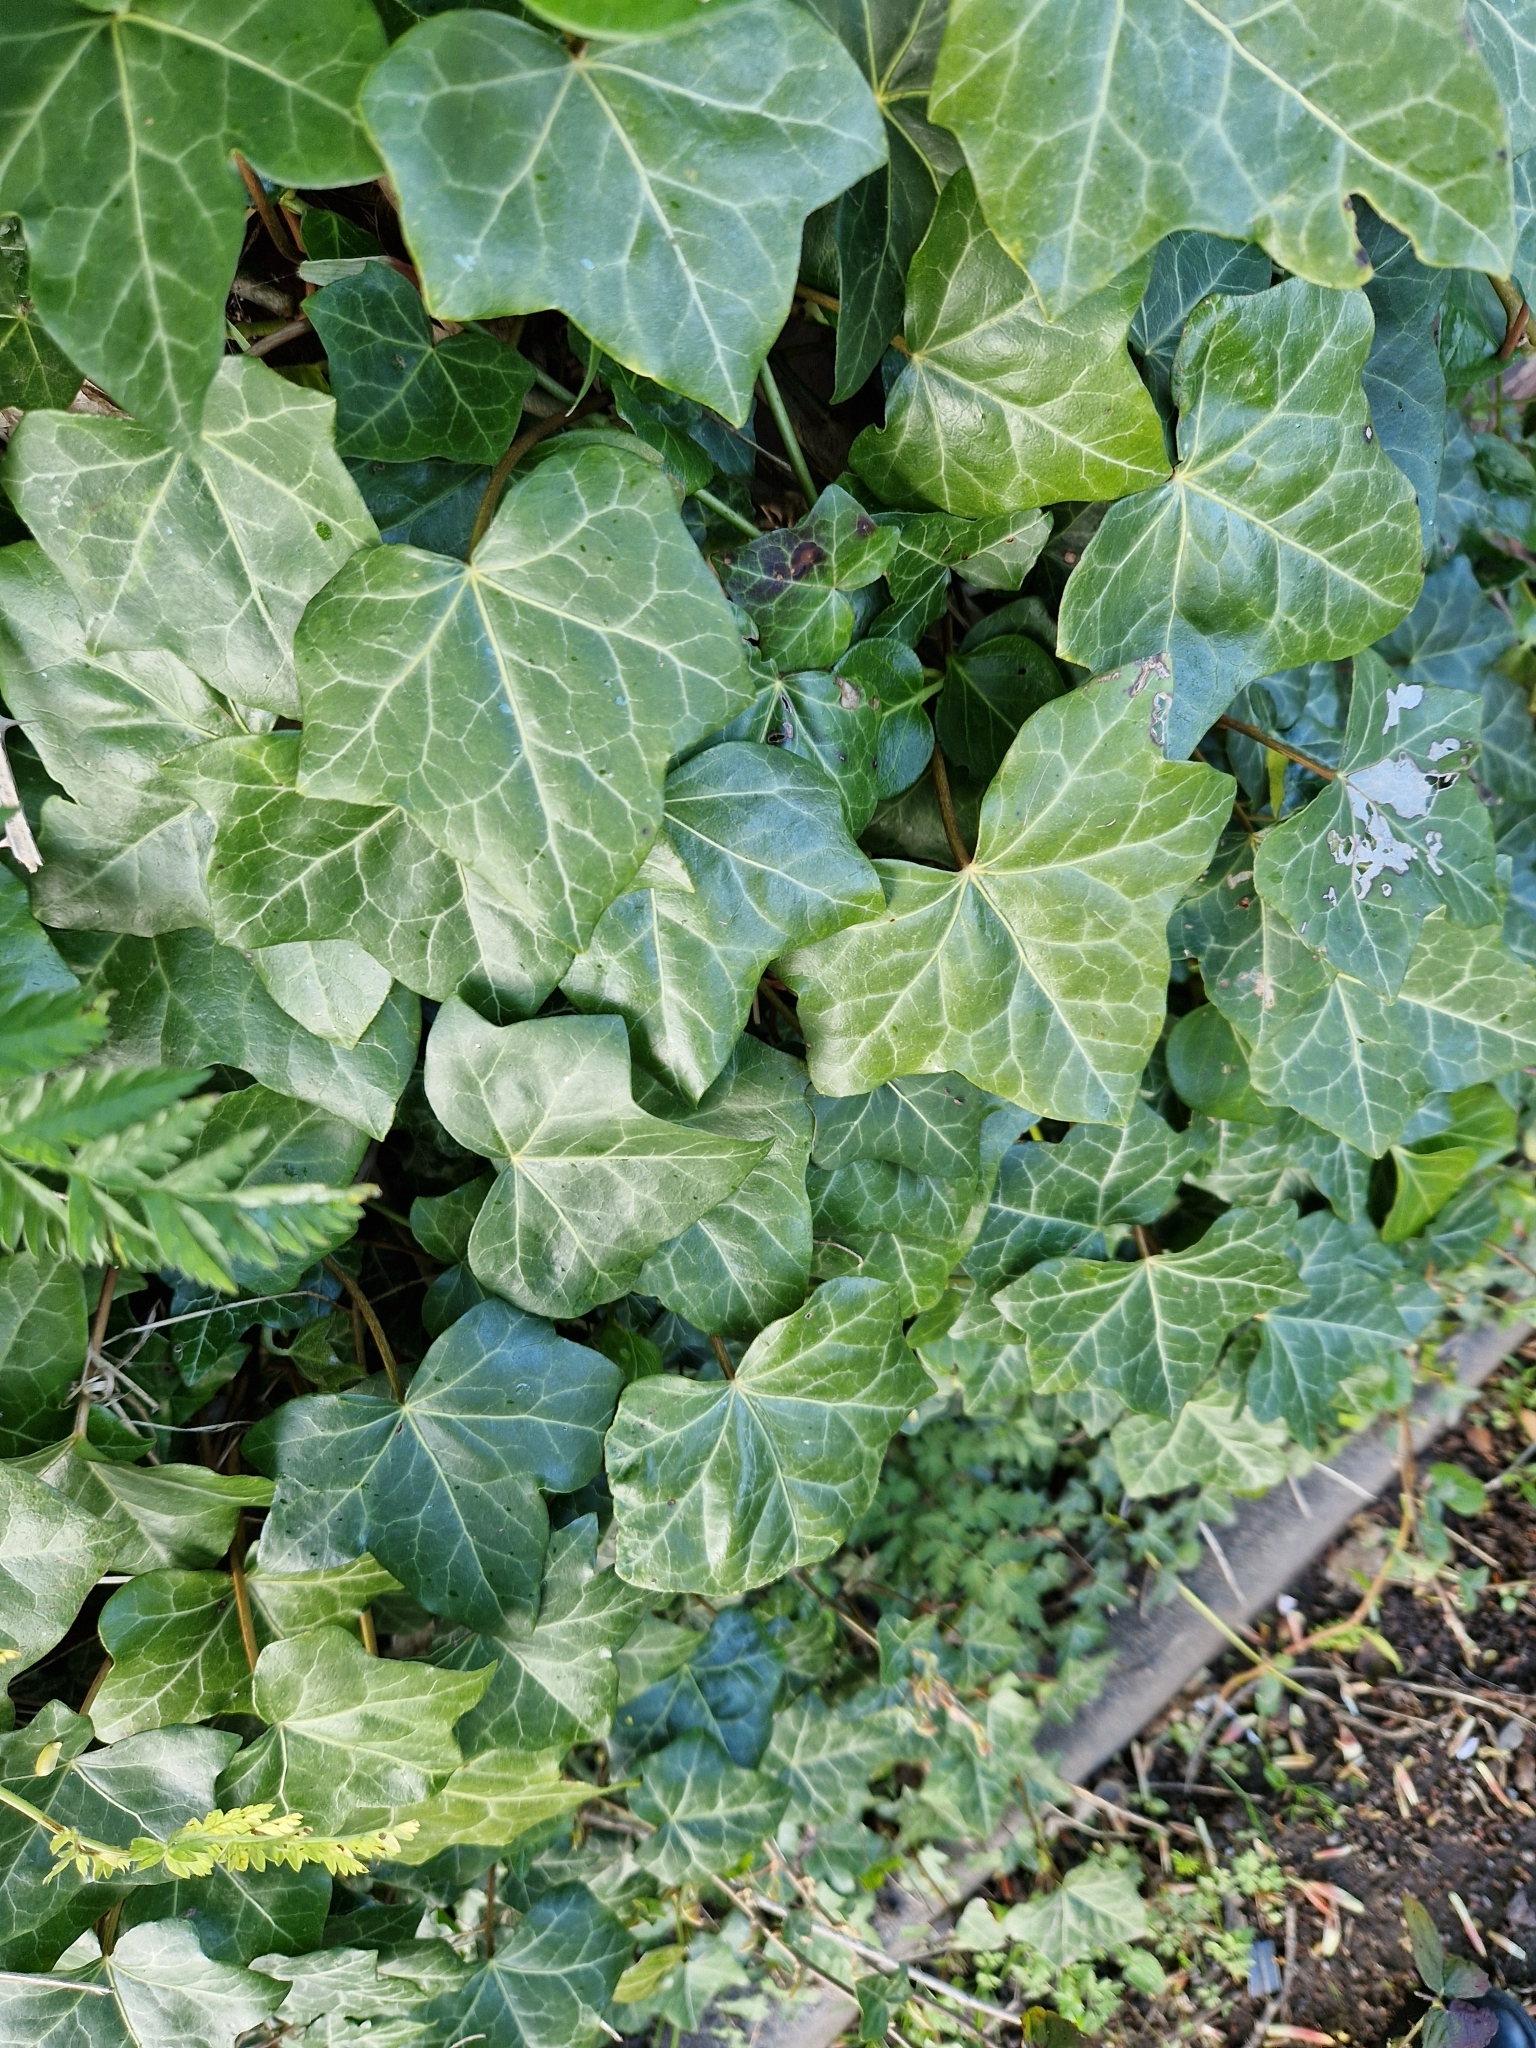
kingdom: Plantae
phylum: Tracheophyta
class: Magnoliopsida
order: Apiales
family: Araliaceae
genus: Hedera
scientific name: Hedera helix
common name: Ivy
